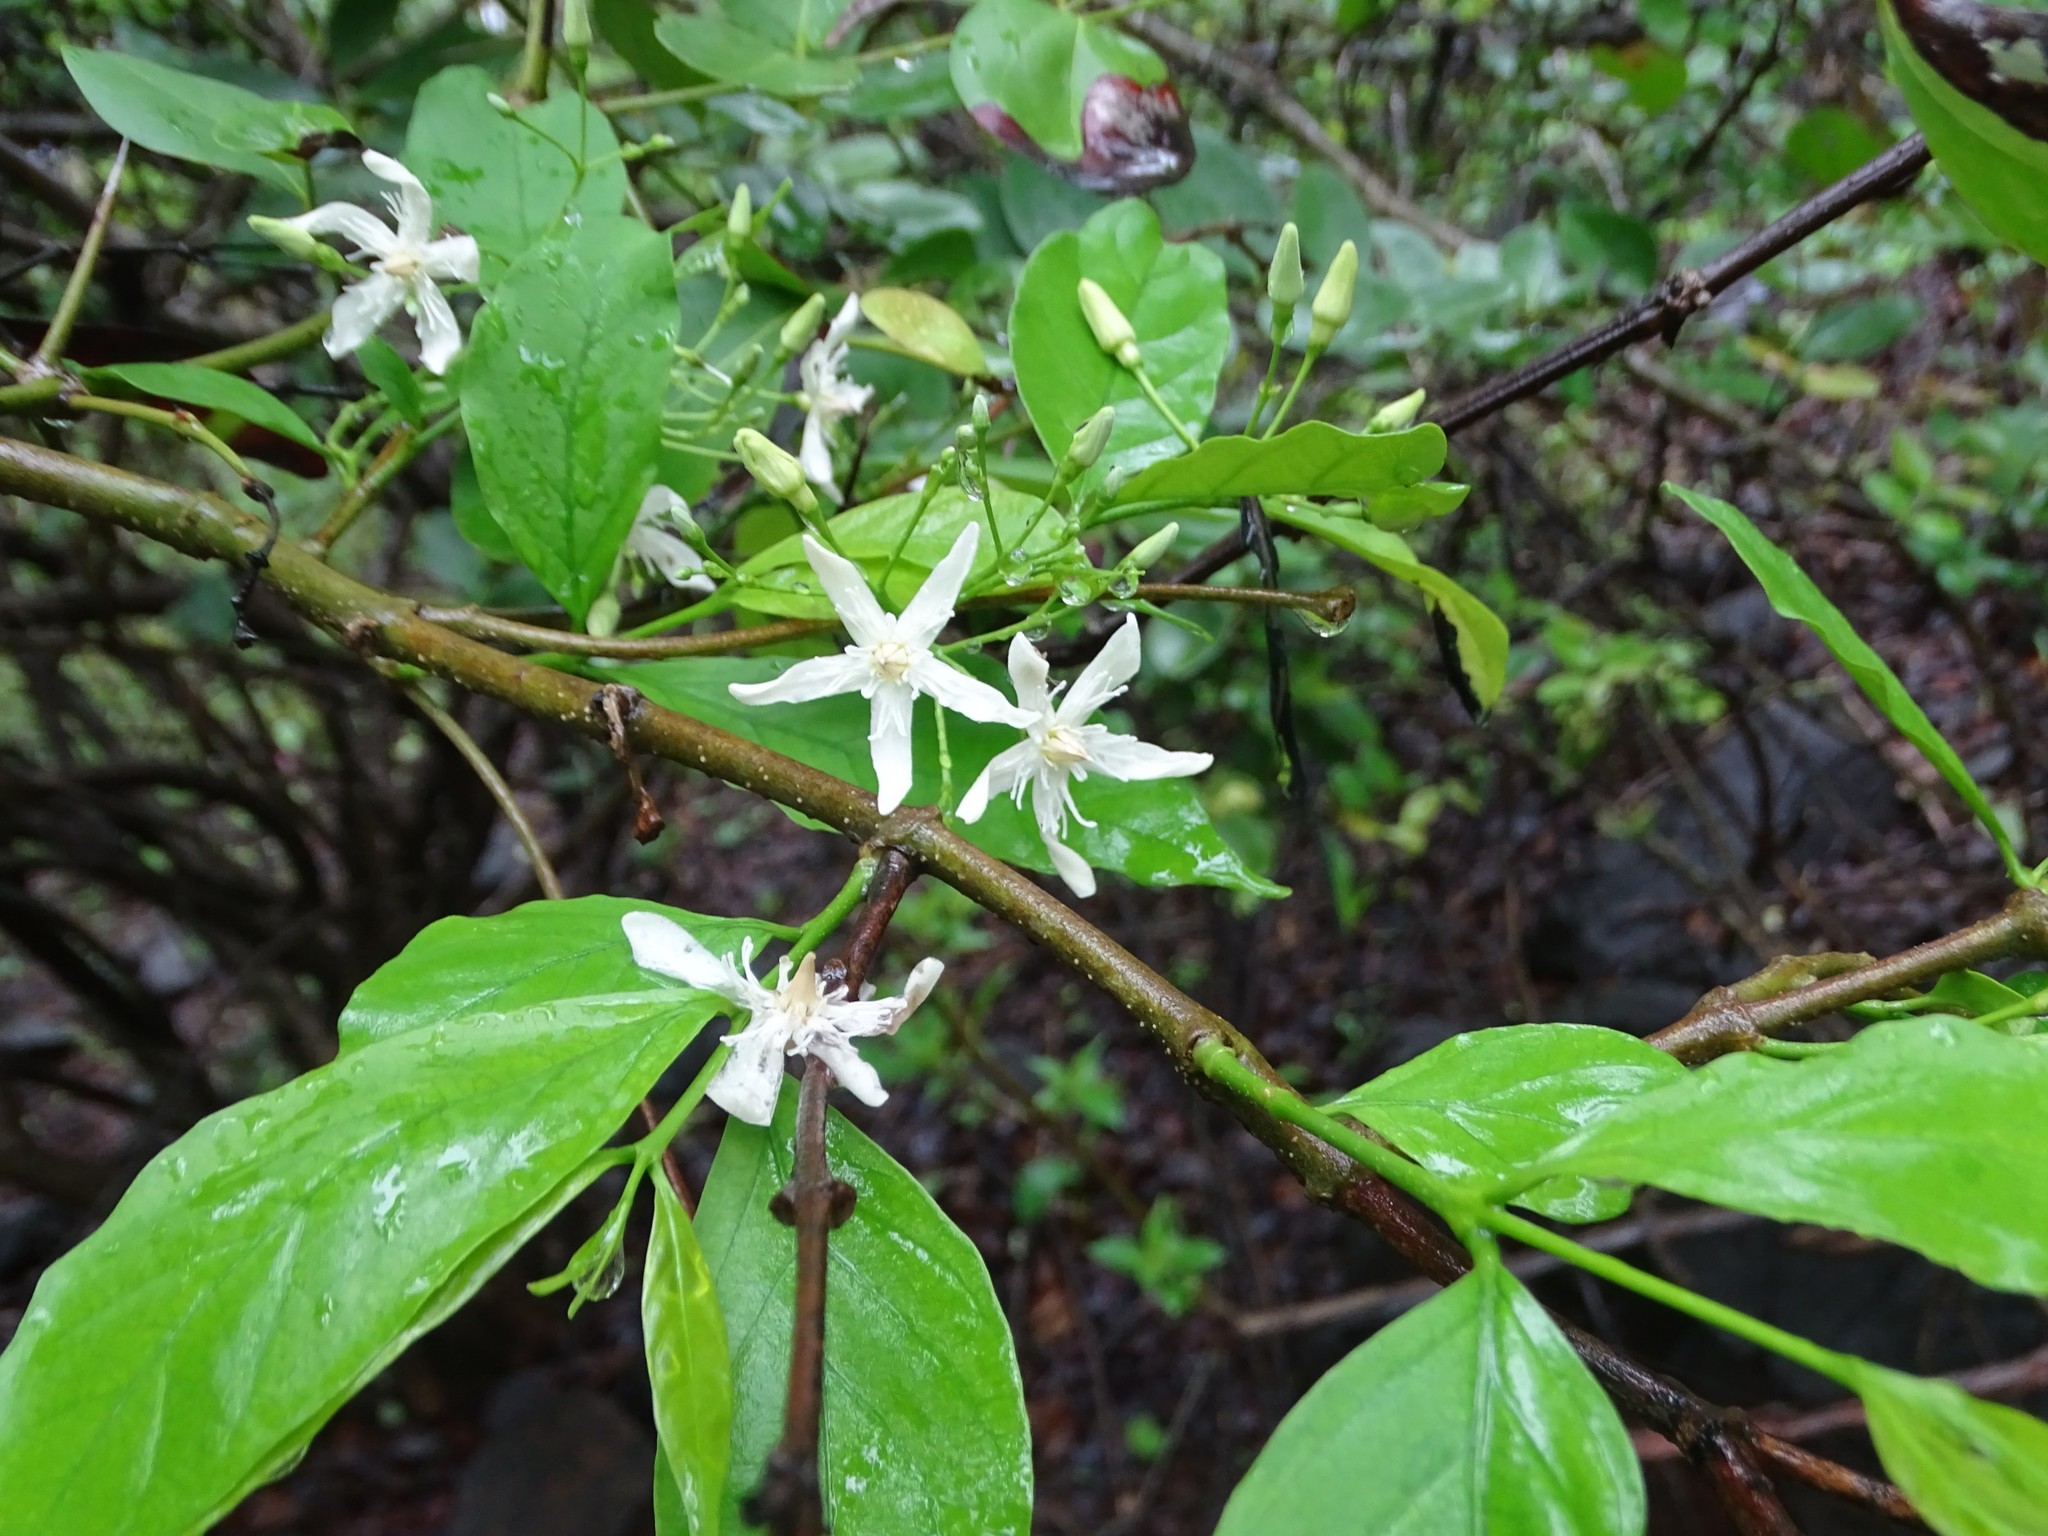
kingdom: Plantae
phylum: Tracheophyta
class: Magnoliopsida
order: Gentianales
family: Apocynaceae
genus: Wrightia
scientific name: Wrightia tinctoria
